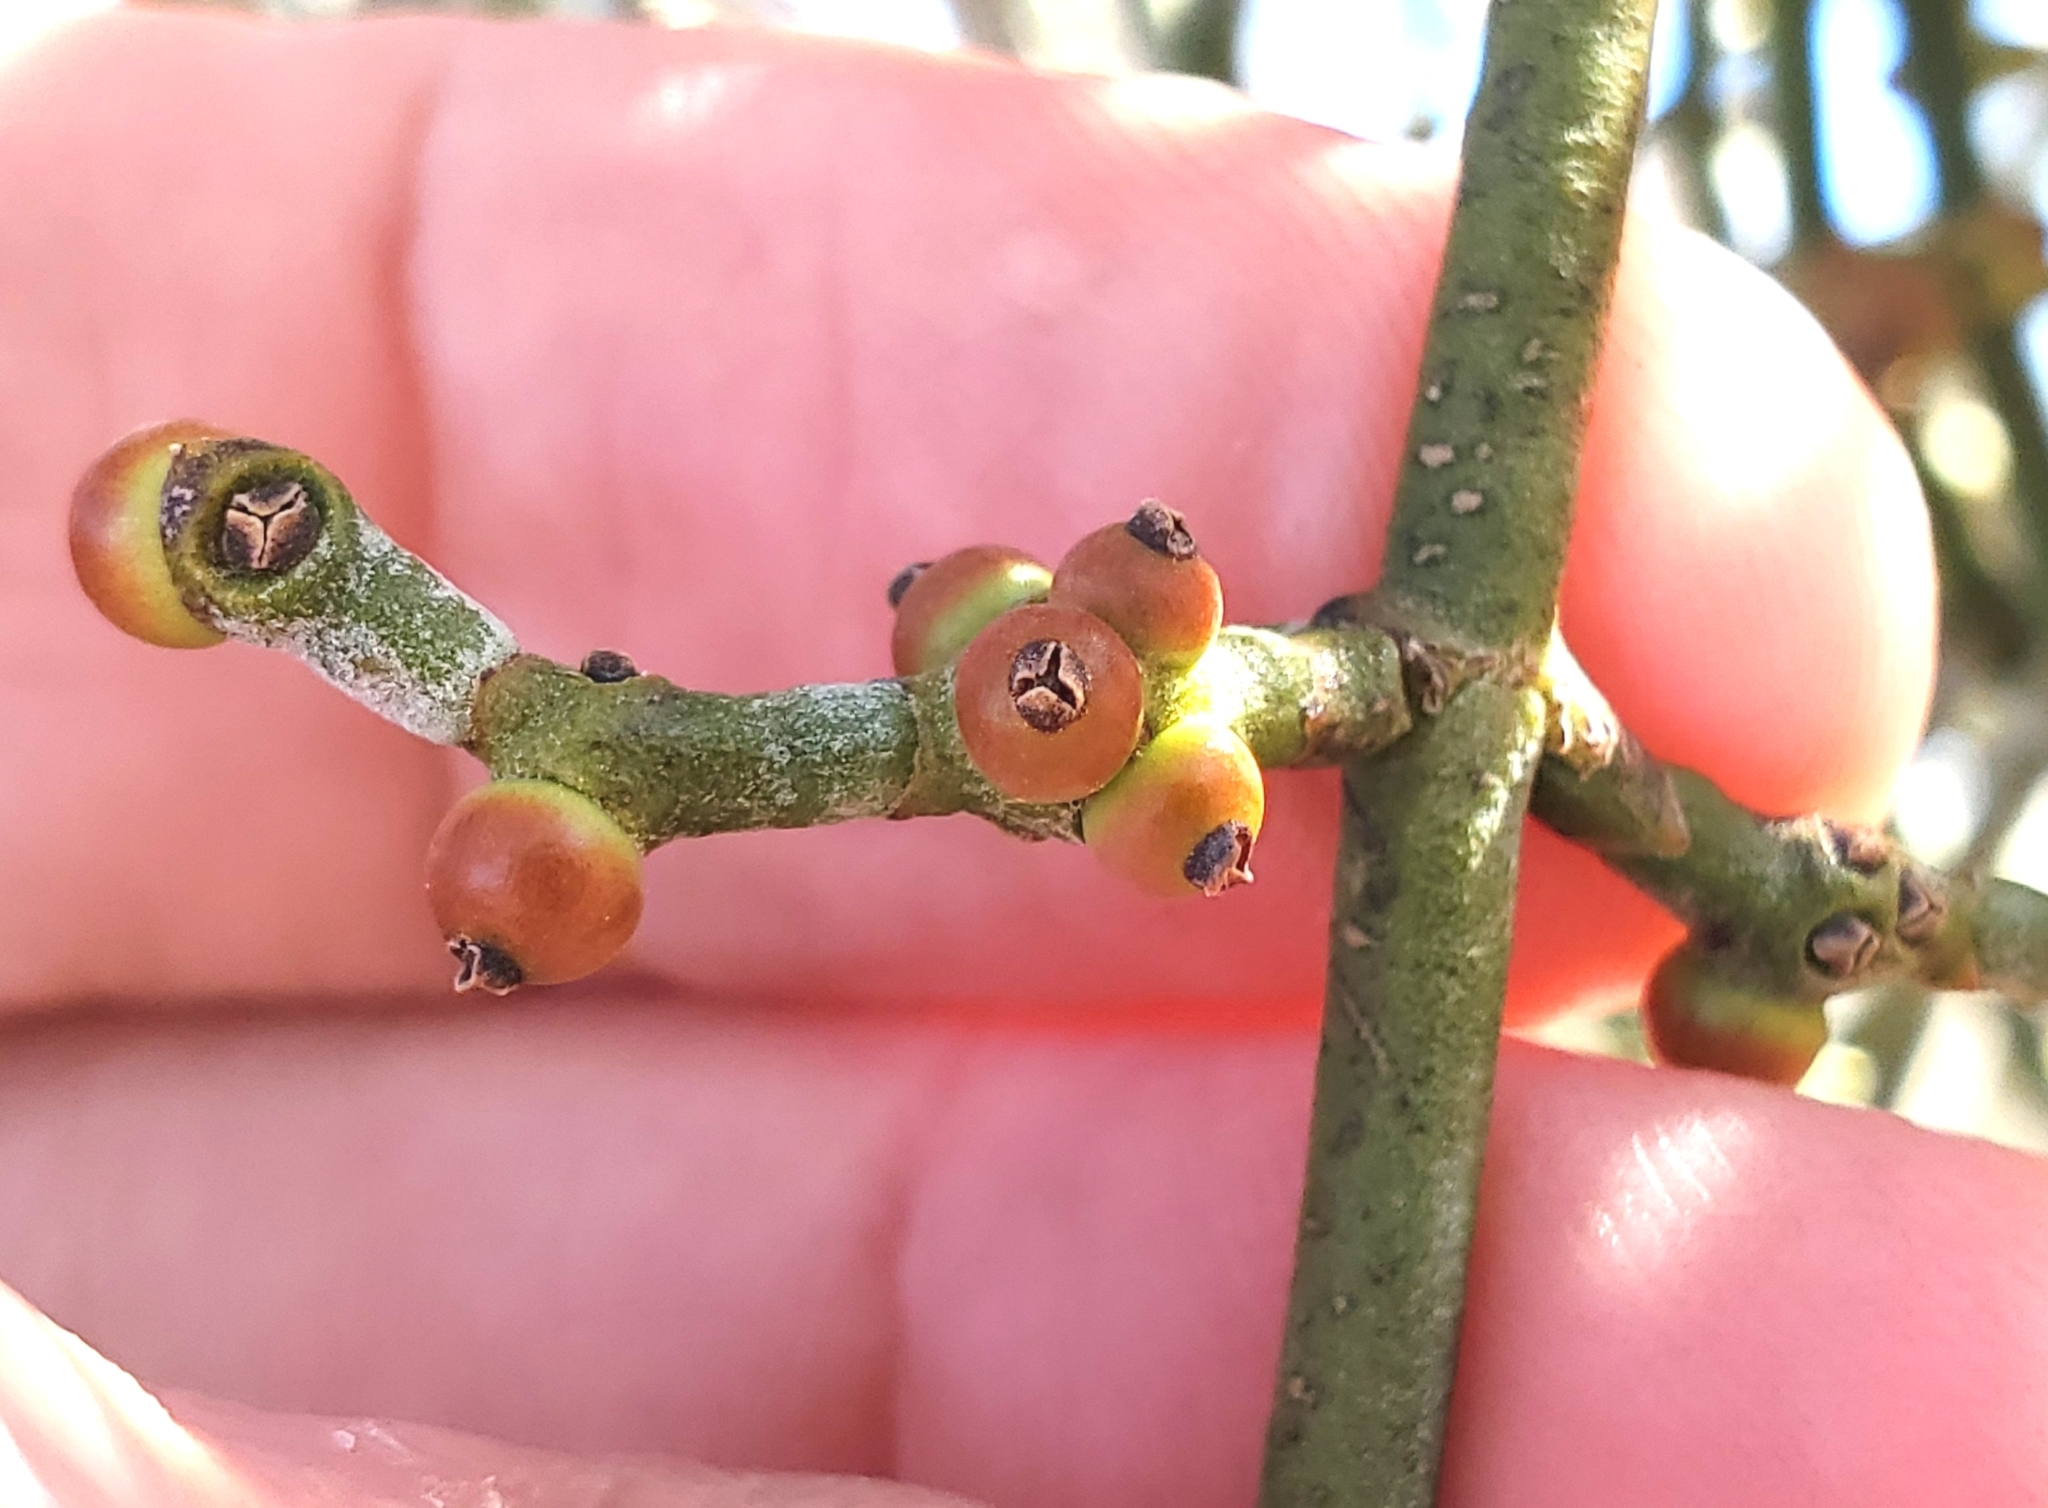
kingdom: Plantae
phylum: Tracheophyta
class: Magnoliopsida
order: Santalales
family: Viscaceae
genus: Phoradendron
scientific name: Phoradendron californicum
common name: Acacia mistletoe
